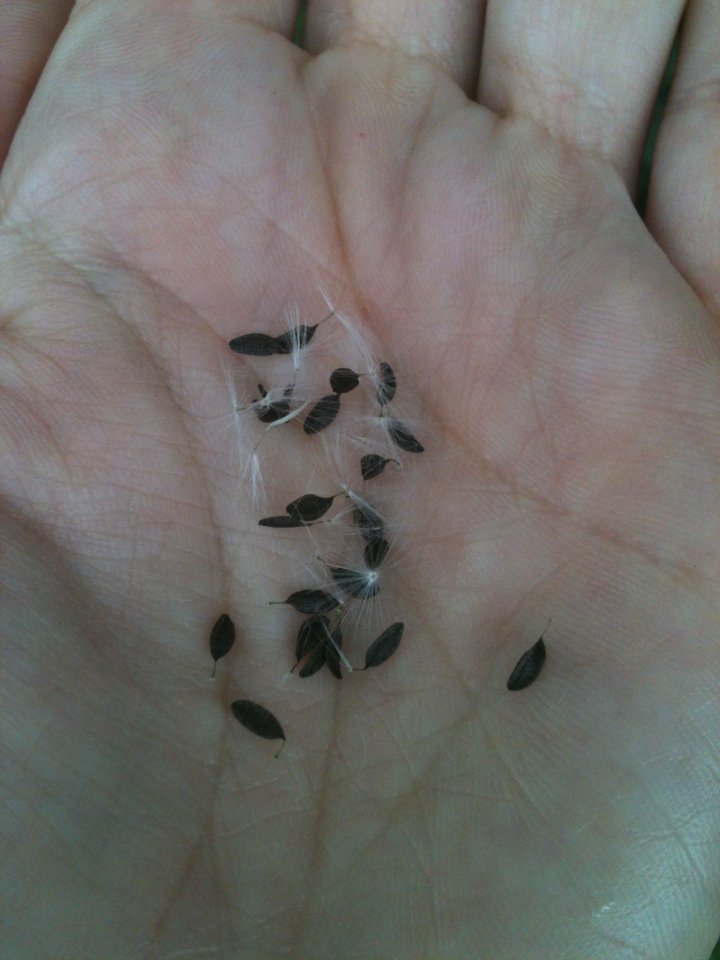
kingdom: Plantae
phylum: Tracheophyta
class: Magnoliopsida
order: Asterales
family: Asteraceae
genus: Lactuca
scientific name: Lactuca canadensis
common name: Canada lettuce
